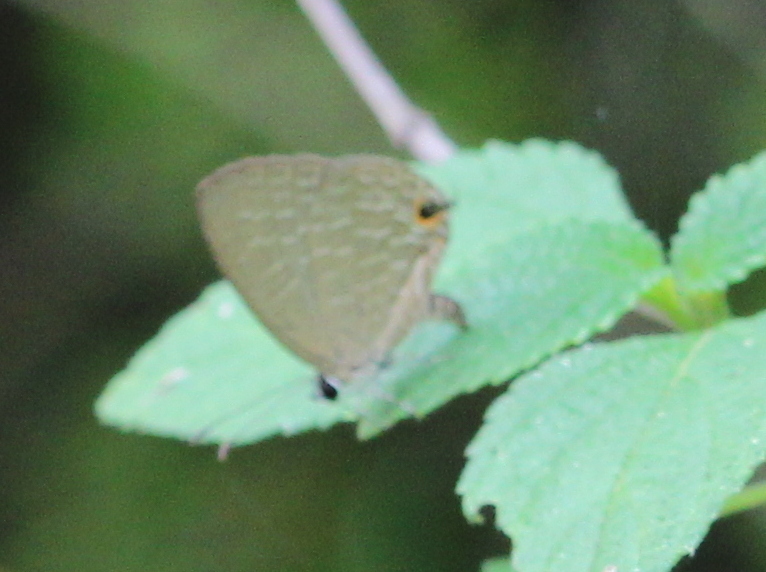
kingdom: Animalia
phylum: Arthropoda
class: Insecta
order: Lepidoptera
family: Lycaenidae
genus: Jamides
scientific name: Jamides bochus
